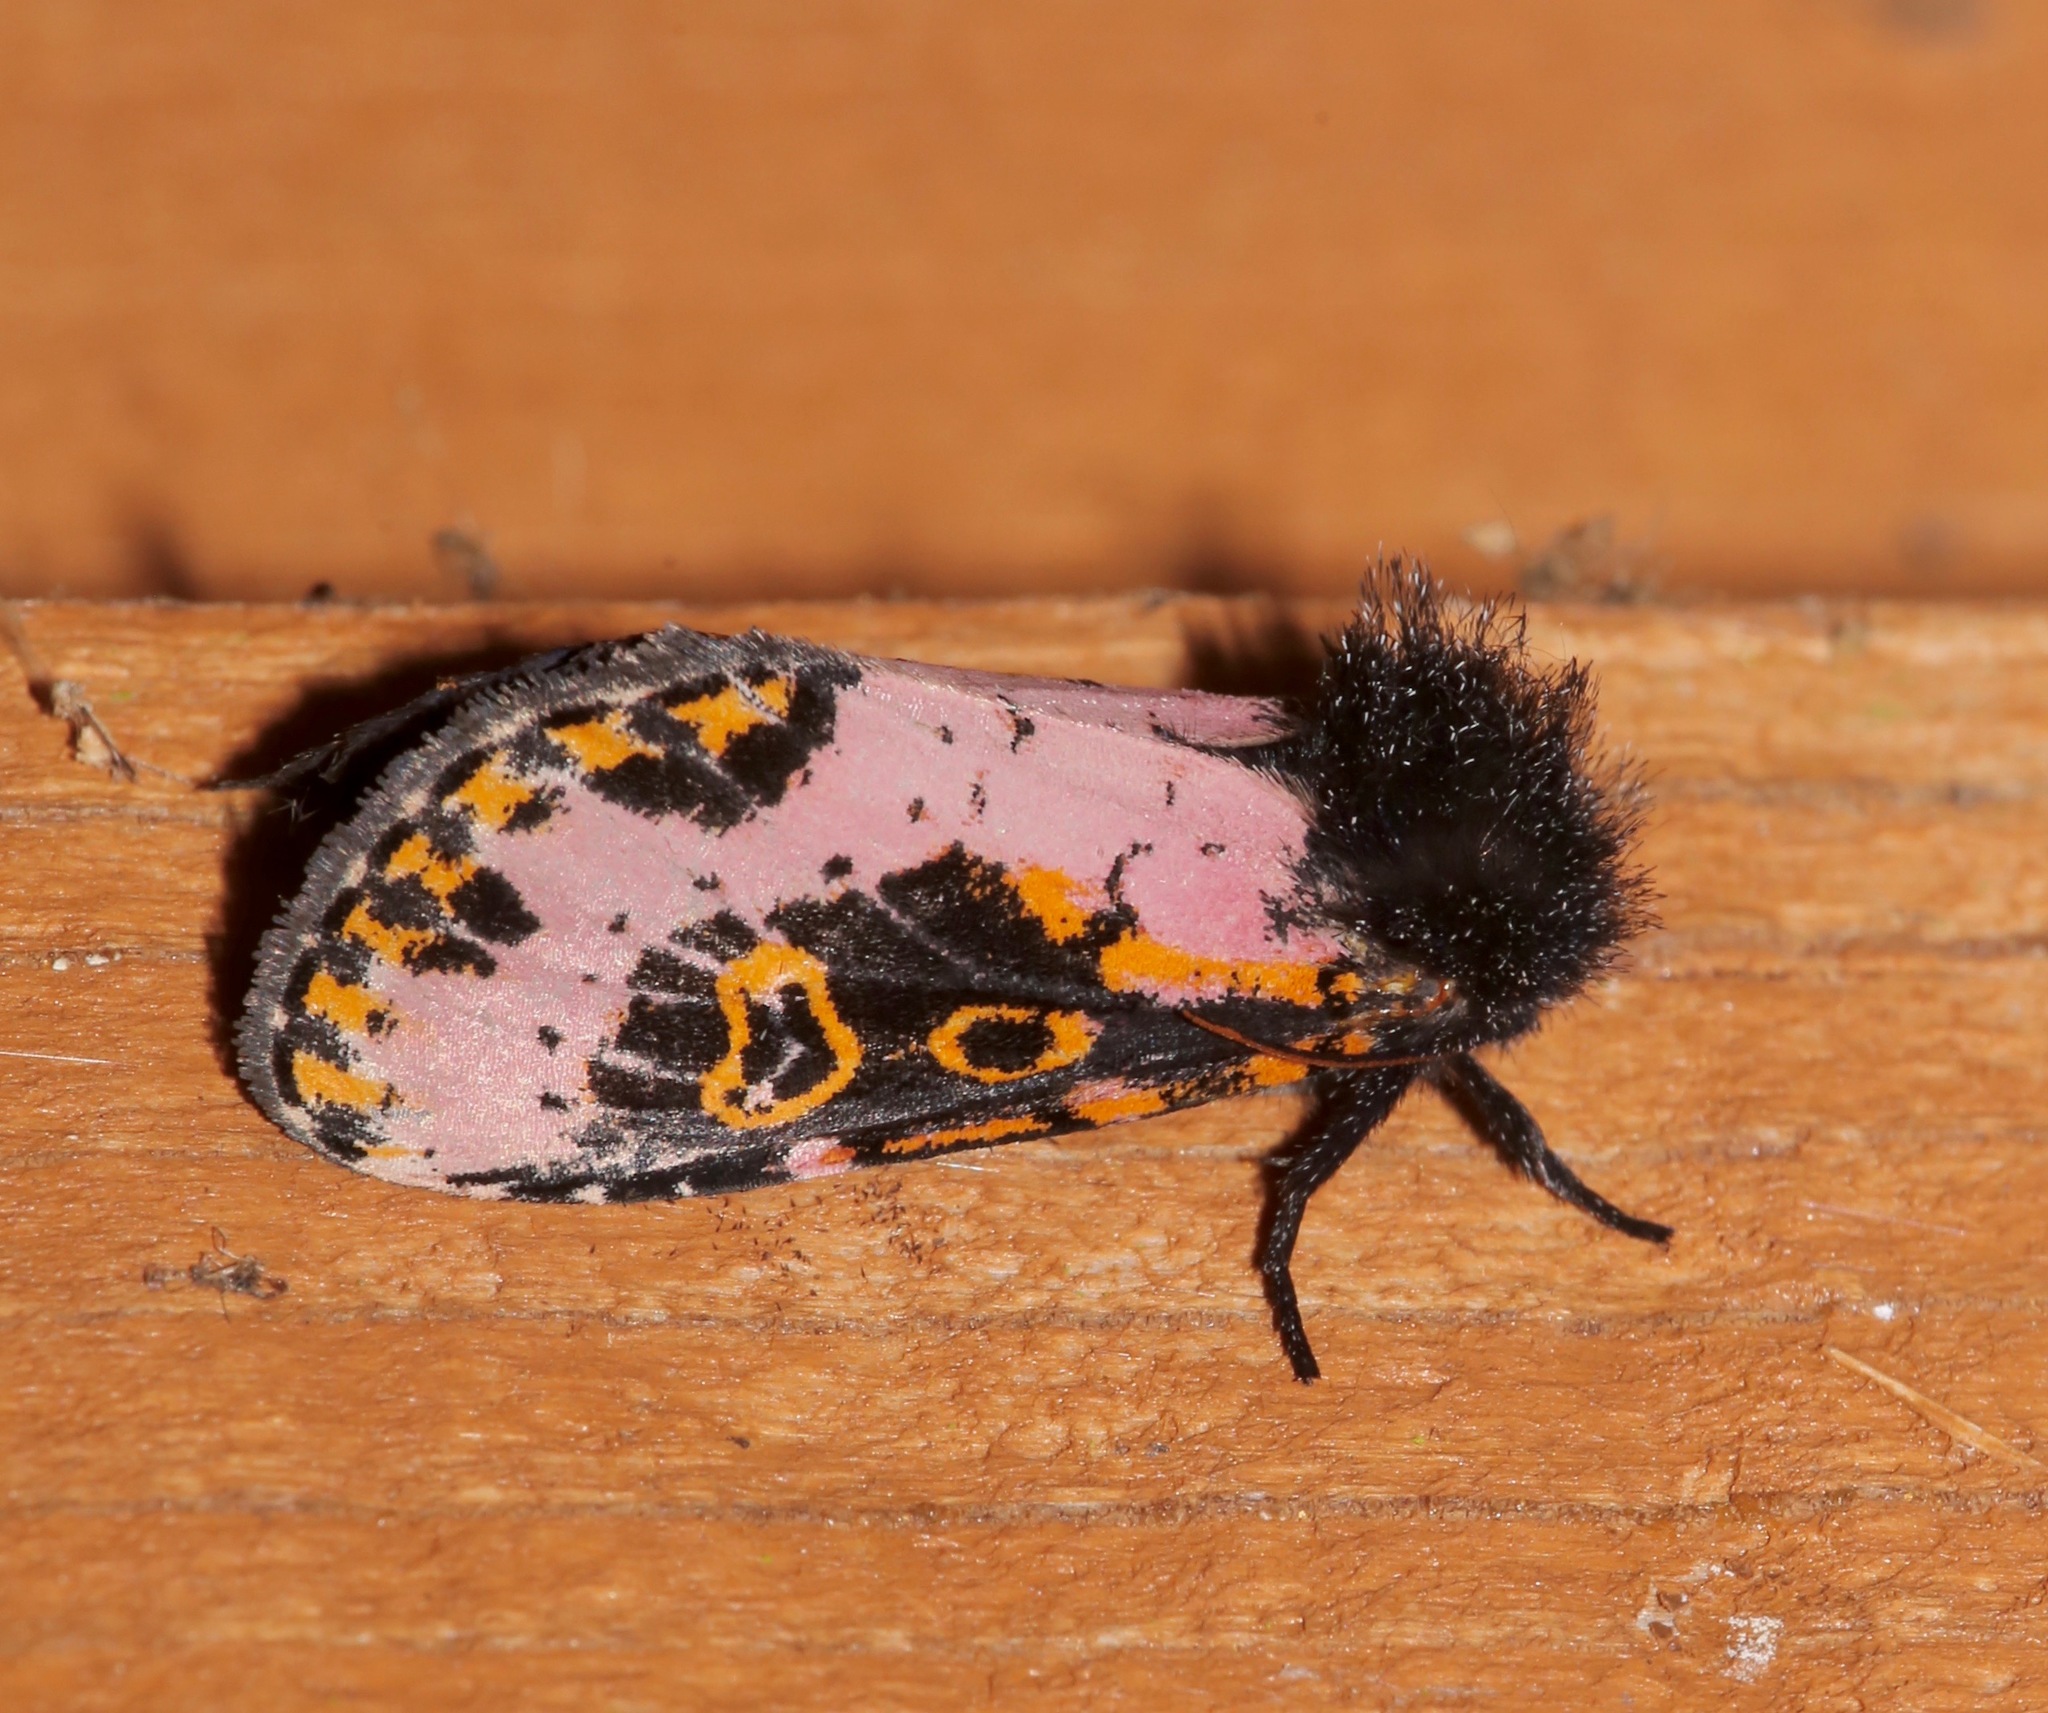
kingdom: Animalia
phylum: Arthropoda
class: Insecta
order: Lepidoptera
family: Noctuidae
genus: Xanthopastis
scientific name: Xanthopastis regnatrix
